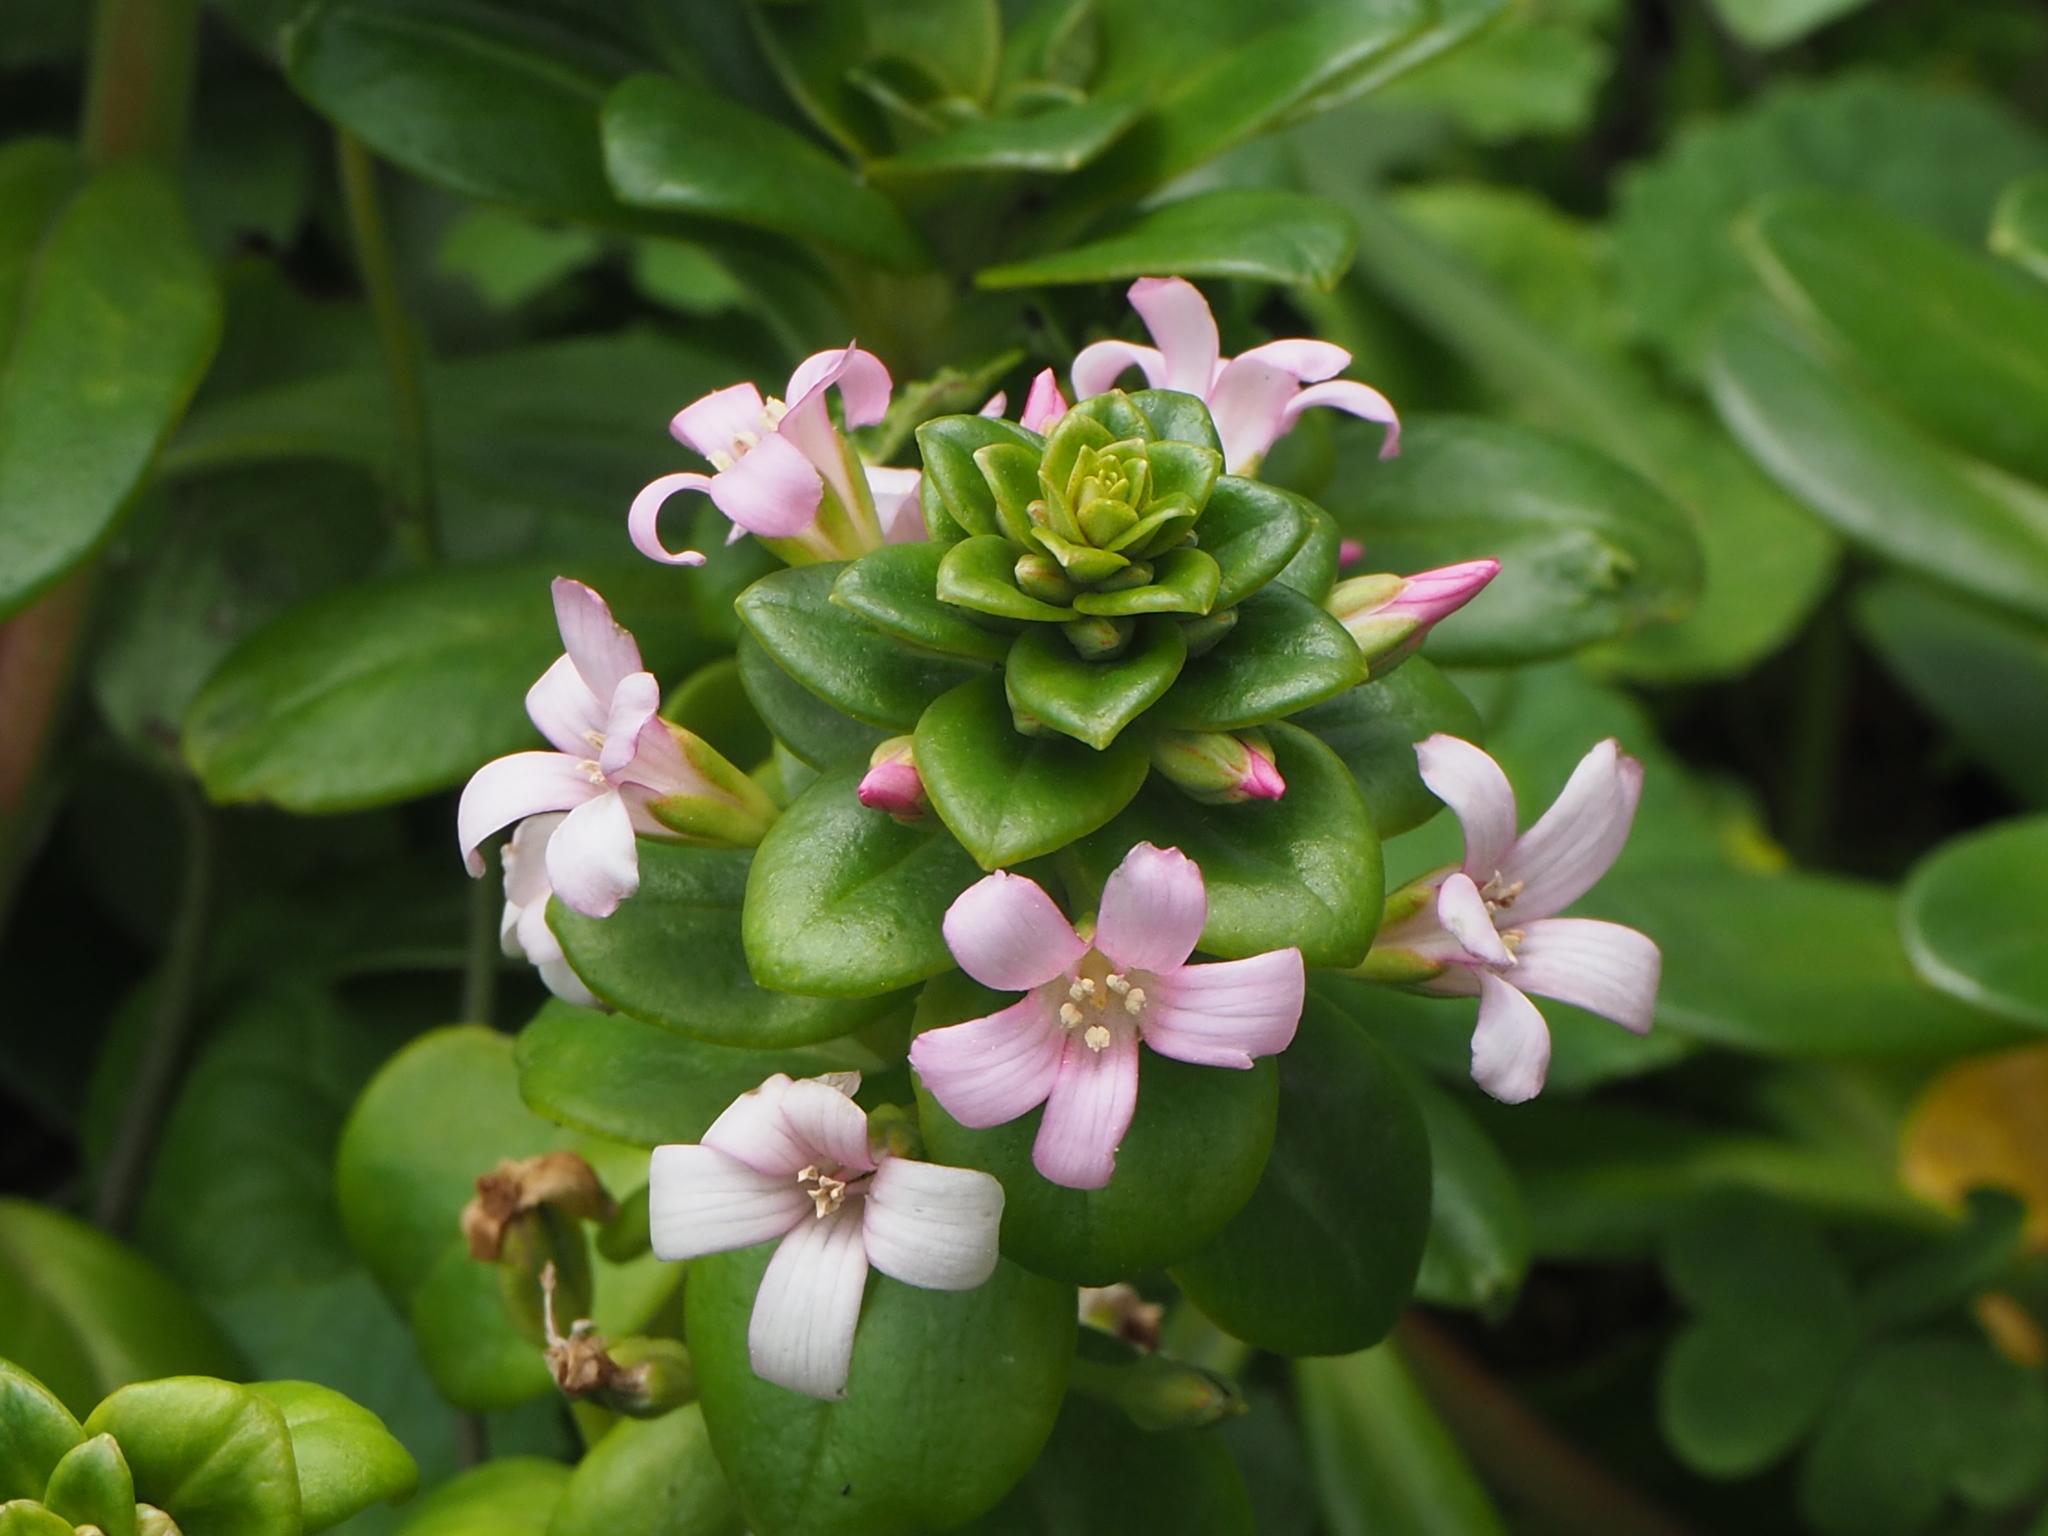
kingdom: Plantae
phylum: Tracheophyta
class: Magnoliopsida
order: Ericales
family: Primulaceae
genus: Lysimachia
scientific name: Lysimachia mauritiana
